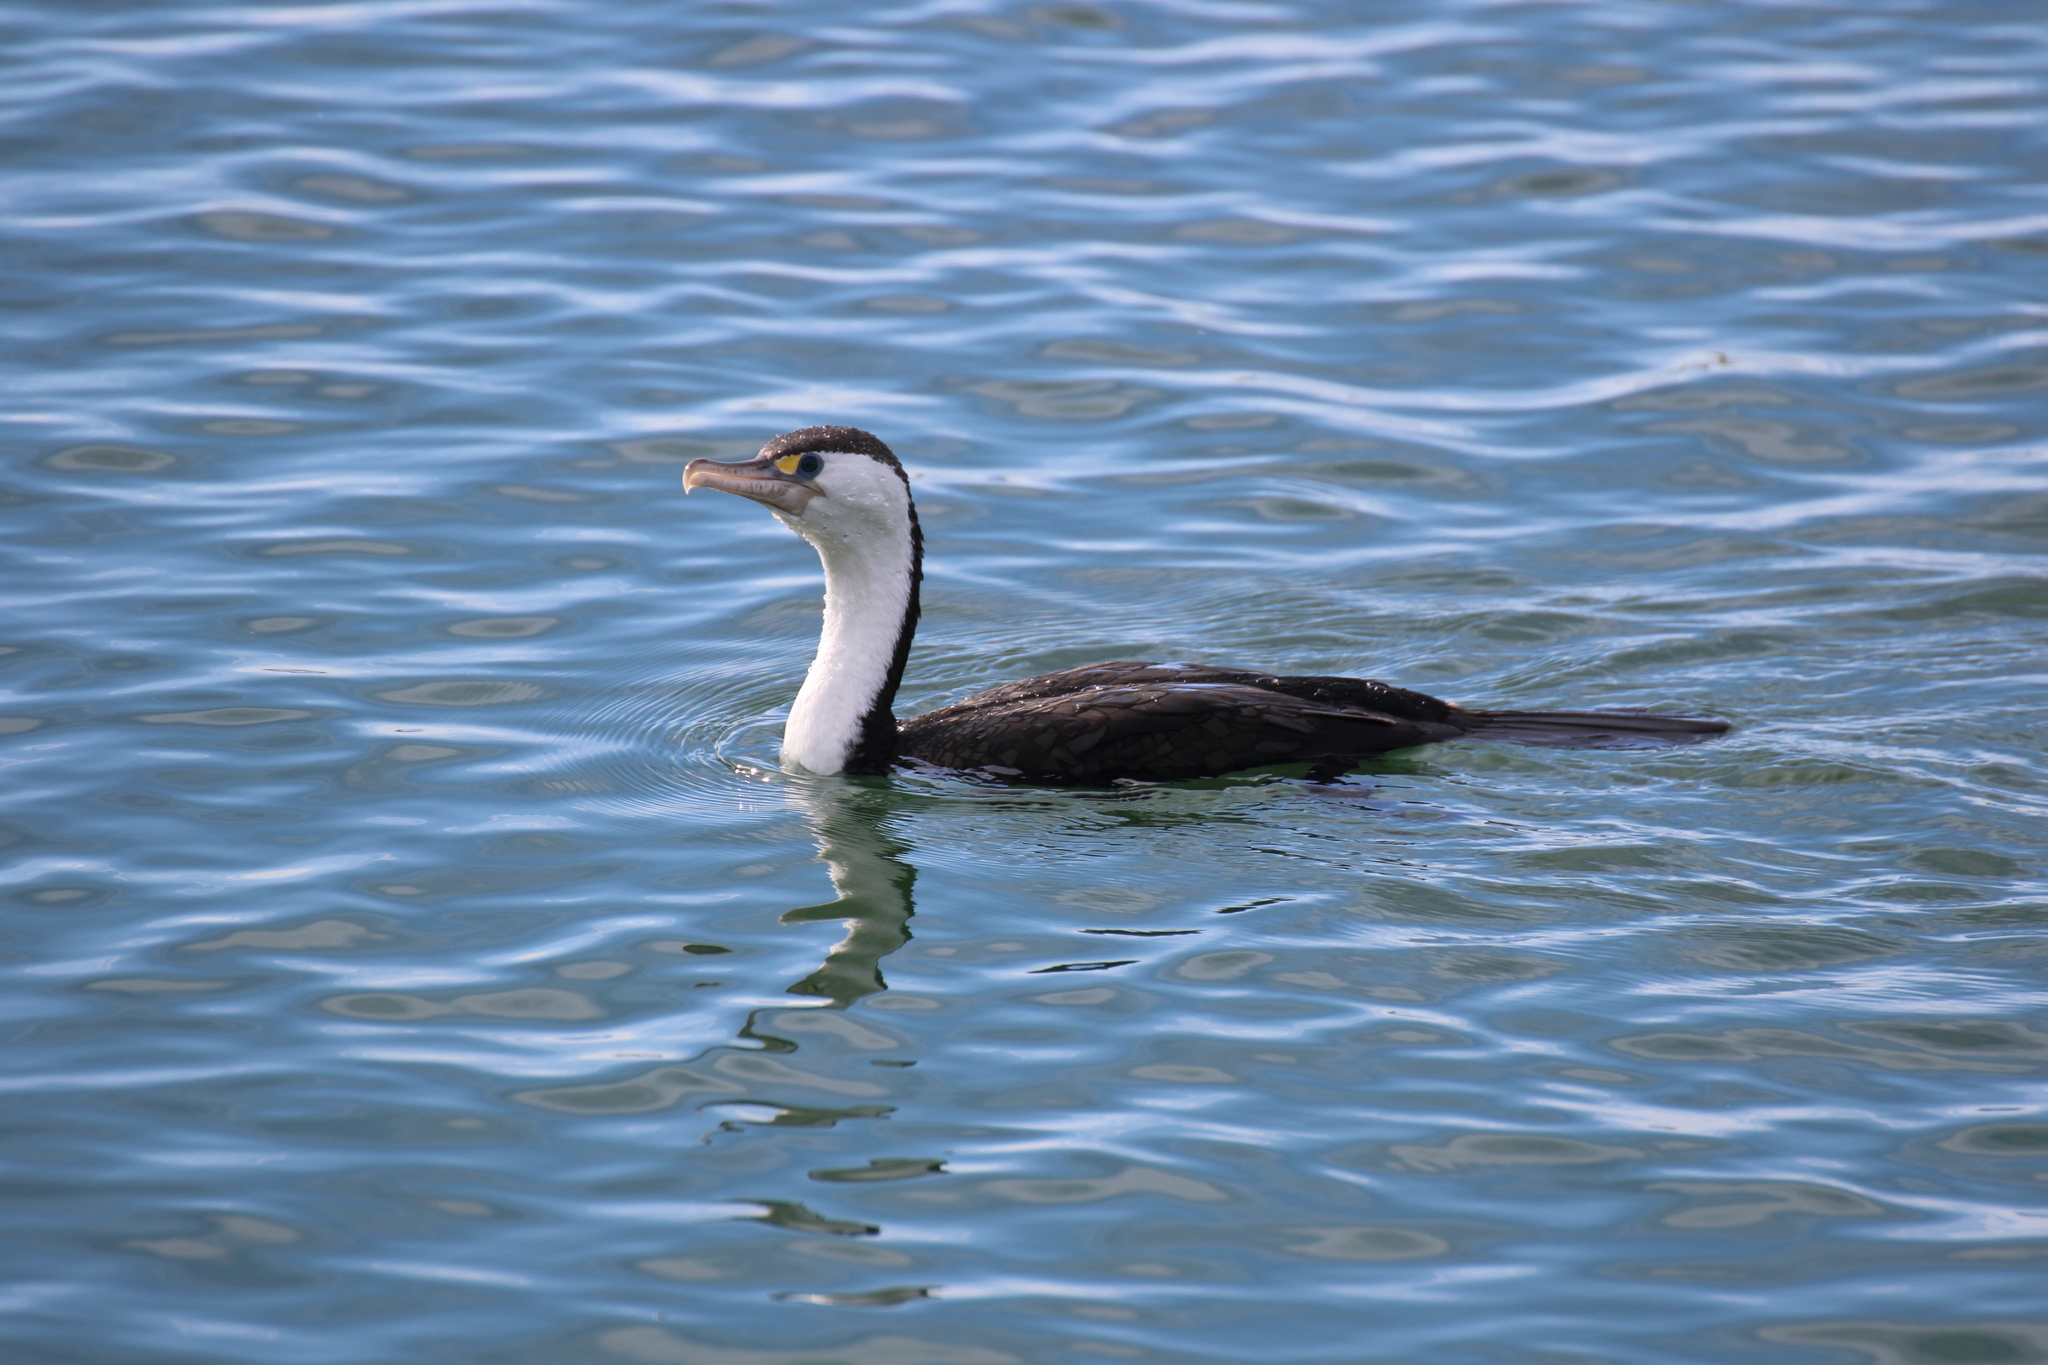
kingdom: Animalia
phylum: Chordata
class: Aves
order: Suliformes
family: Phalacrocoracidae
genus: Phalacrocorax
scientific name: Phalacrocorax varius
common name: Pied cormorant
